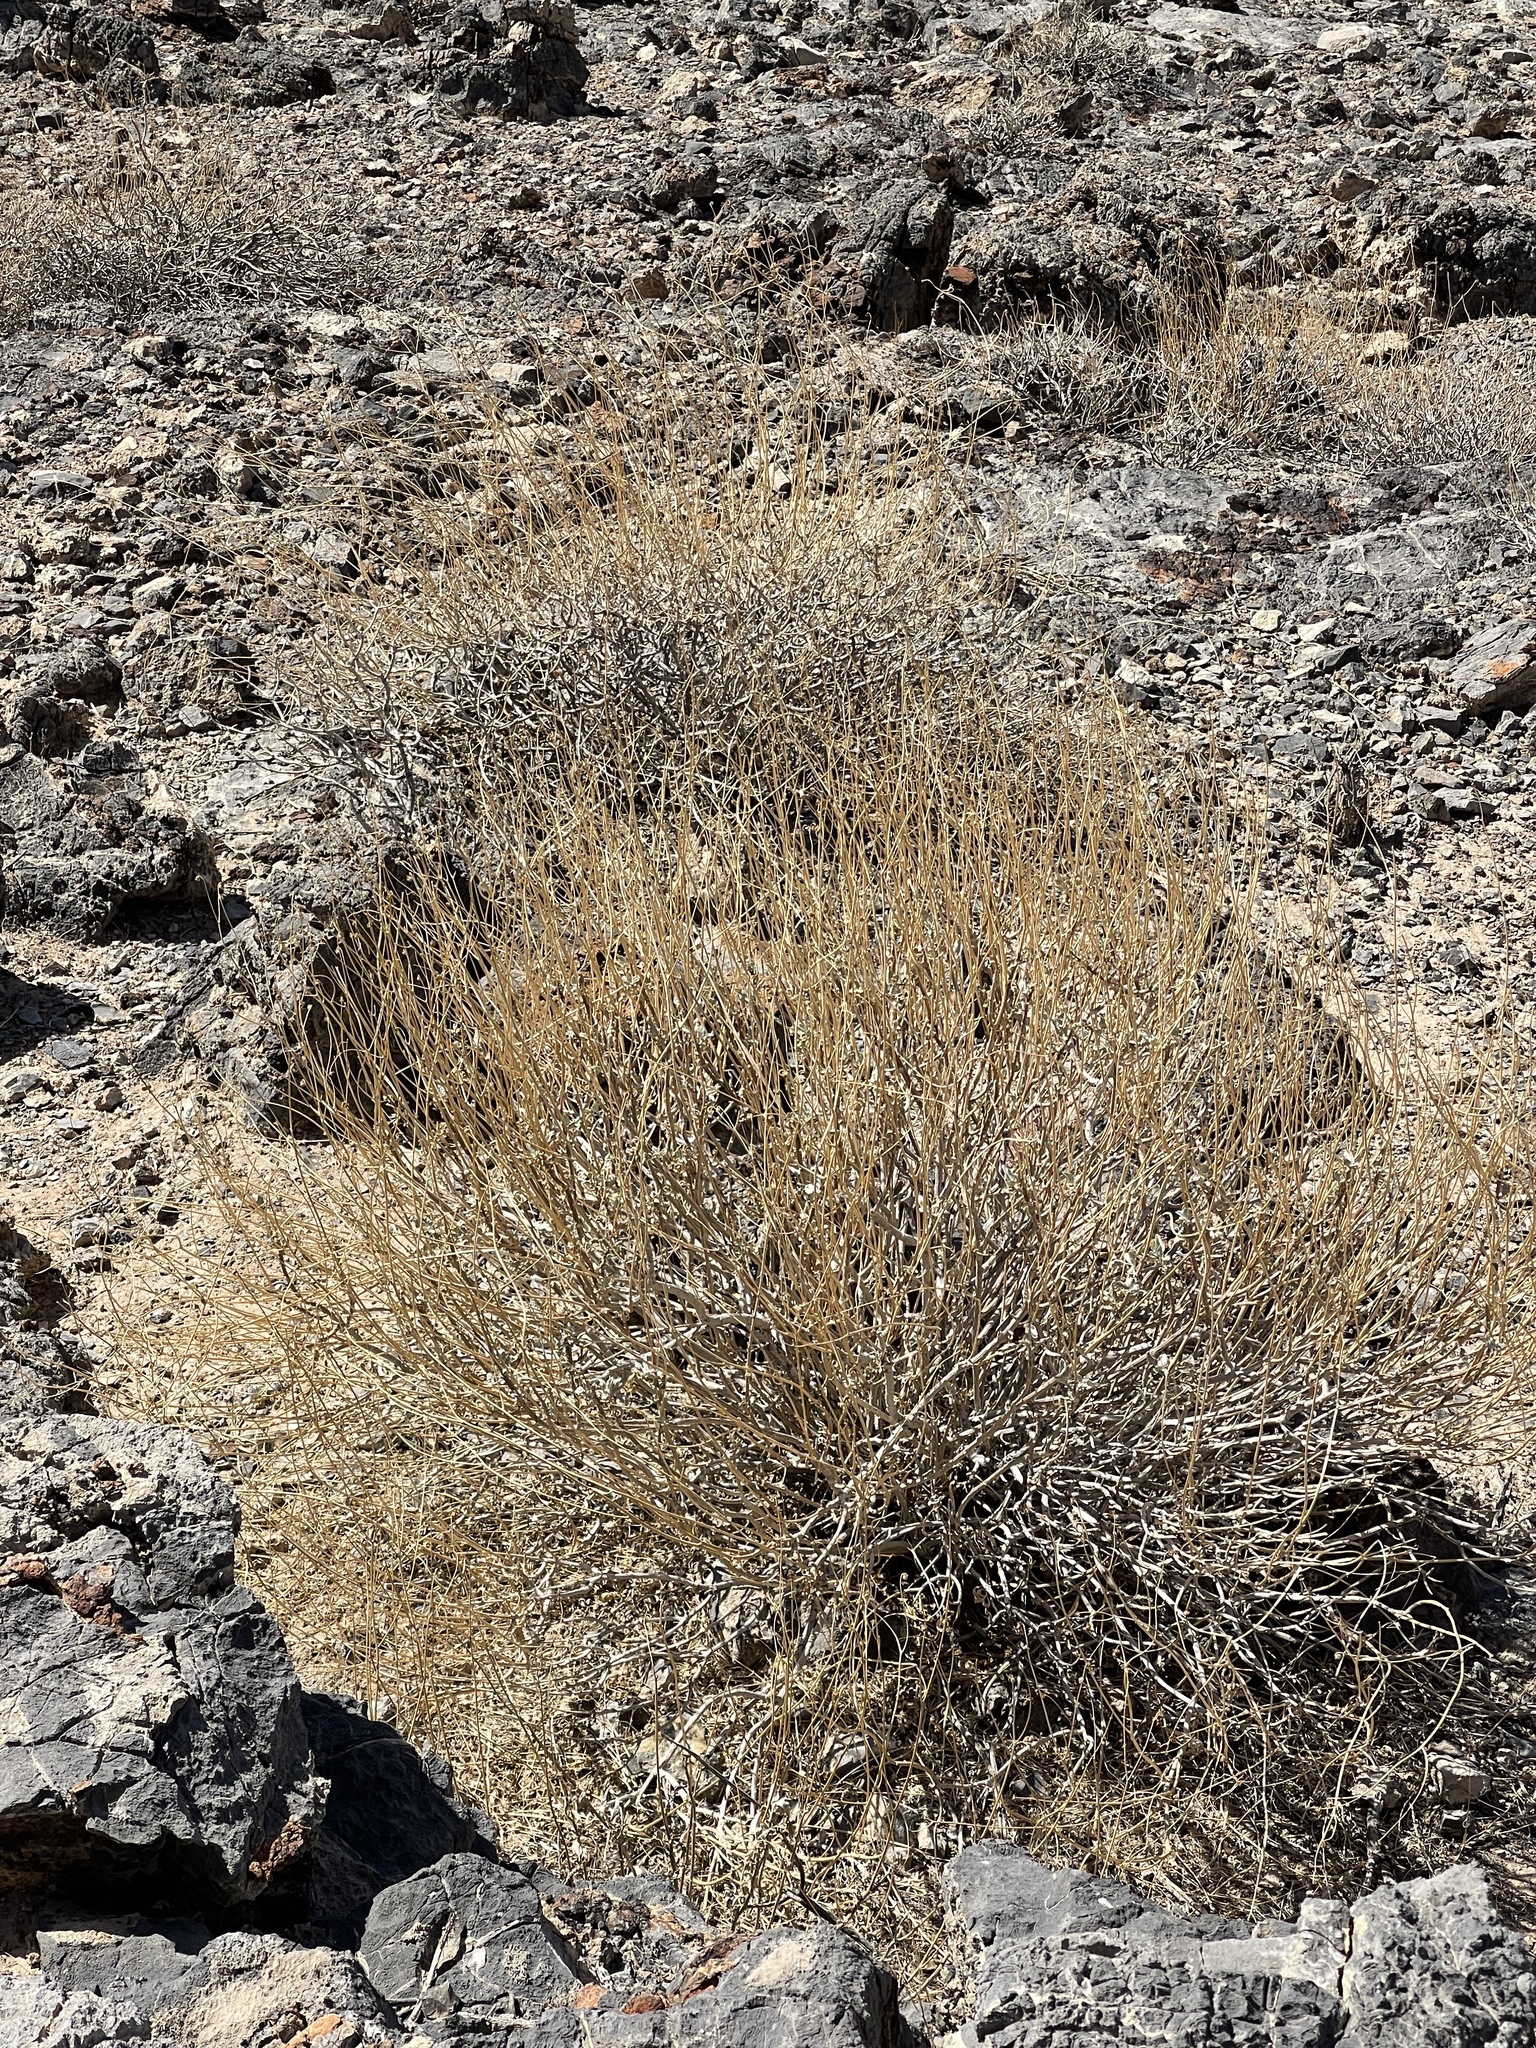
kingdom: Plantae
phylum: Tracheophyta
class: Magnoliopsida
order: Asterales
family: Asteraceae
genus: Encelia
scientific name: Encelia farinosa
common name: Brittlebush
